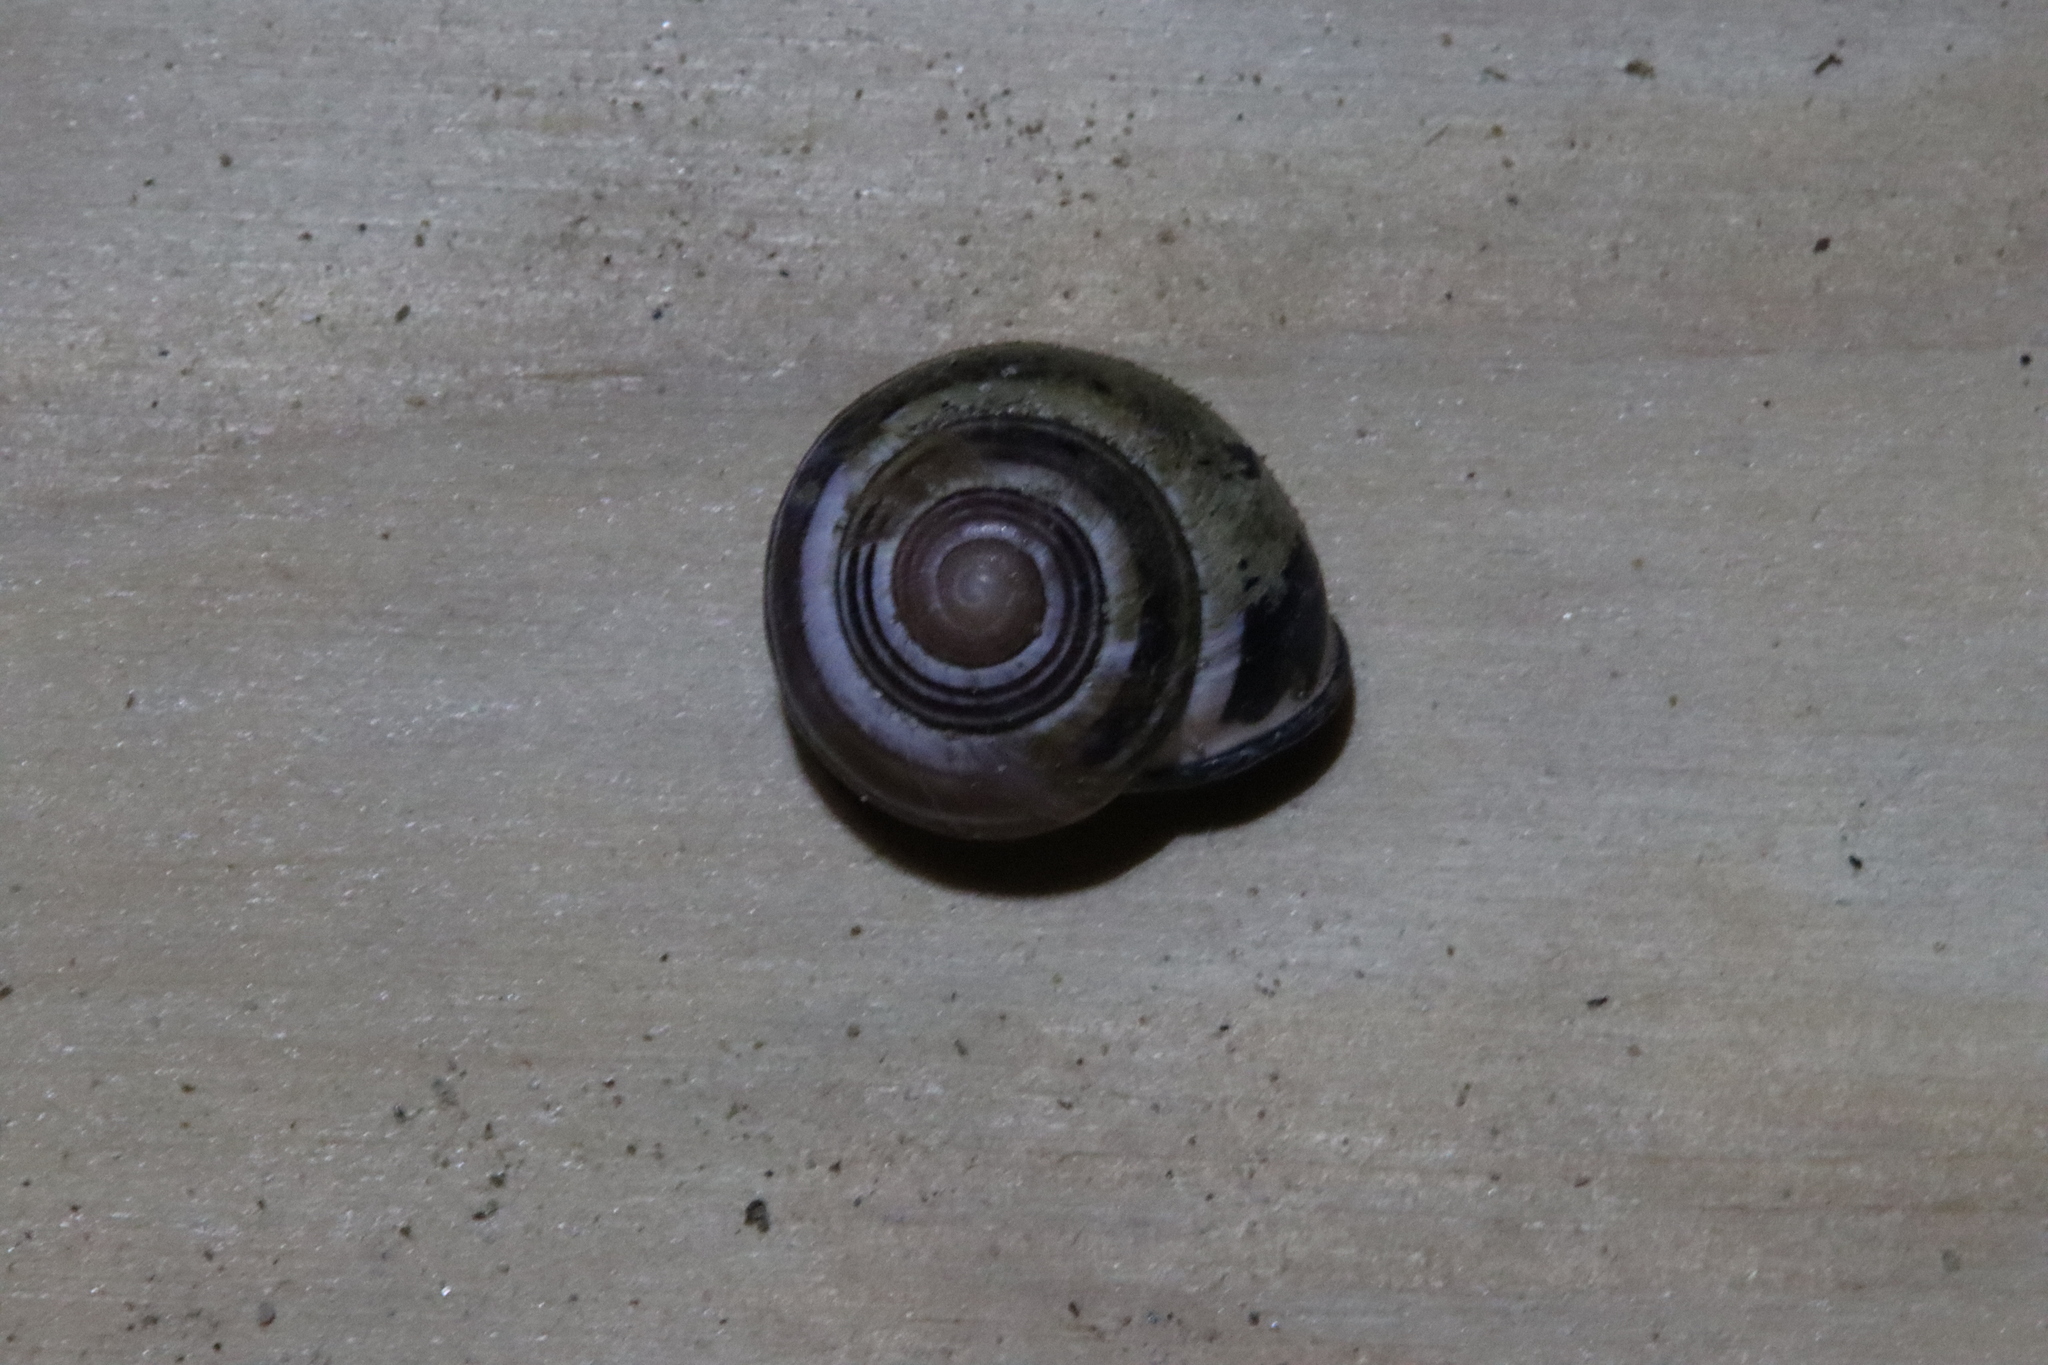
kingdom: Animalia
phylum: Mollusca
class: Gastropoda
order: Stylommatophora
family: Helicidae
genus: Cepaea
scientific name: Cepaea nemoralis
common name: Grovesnail
